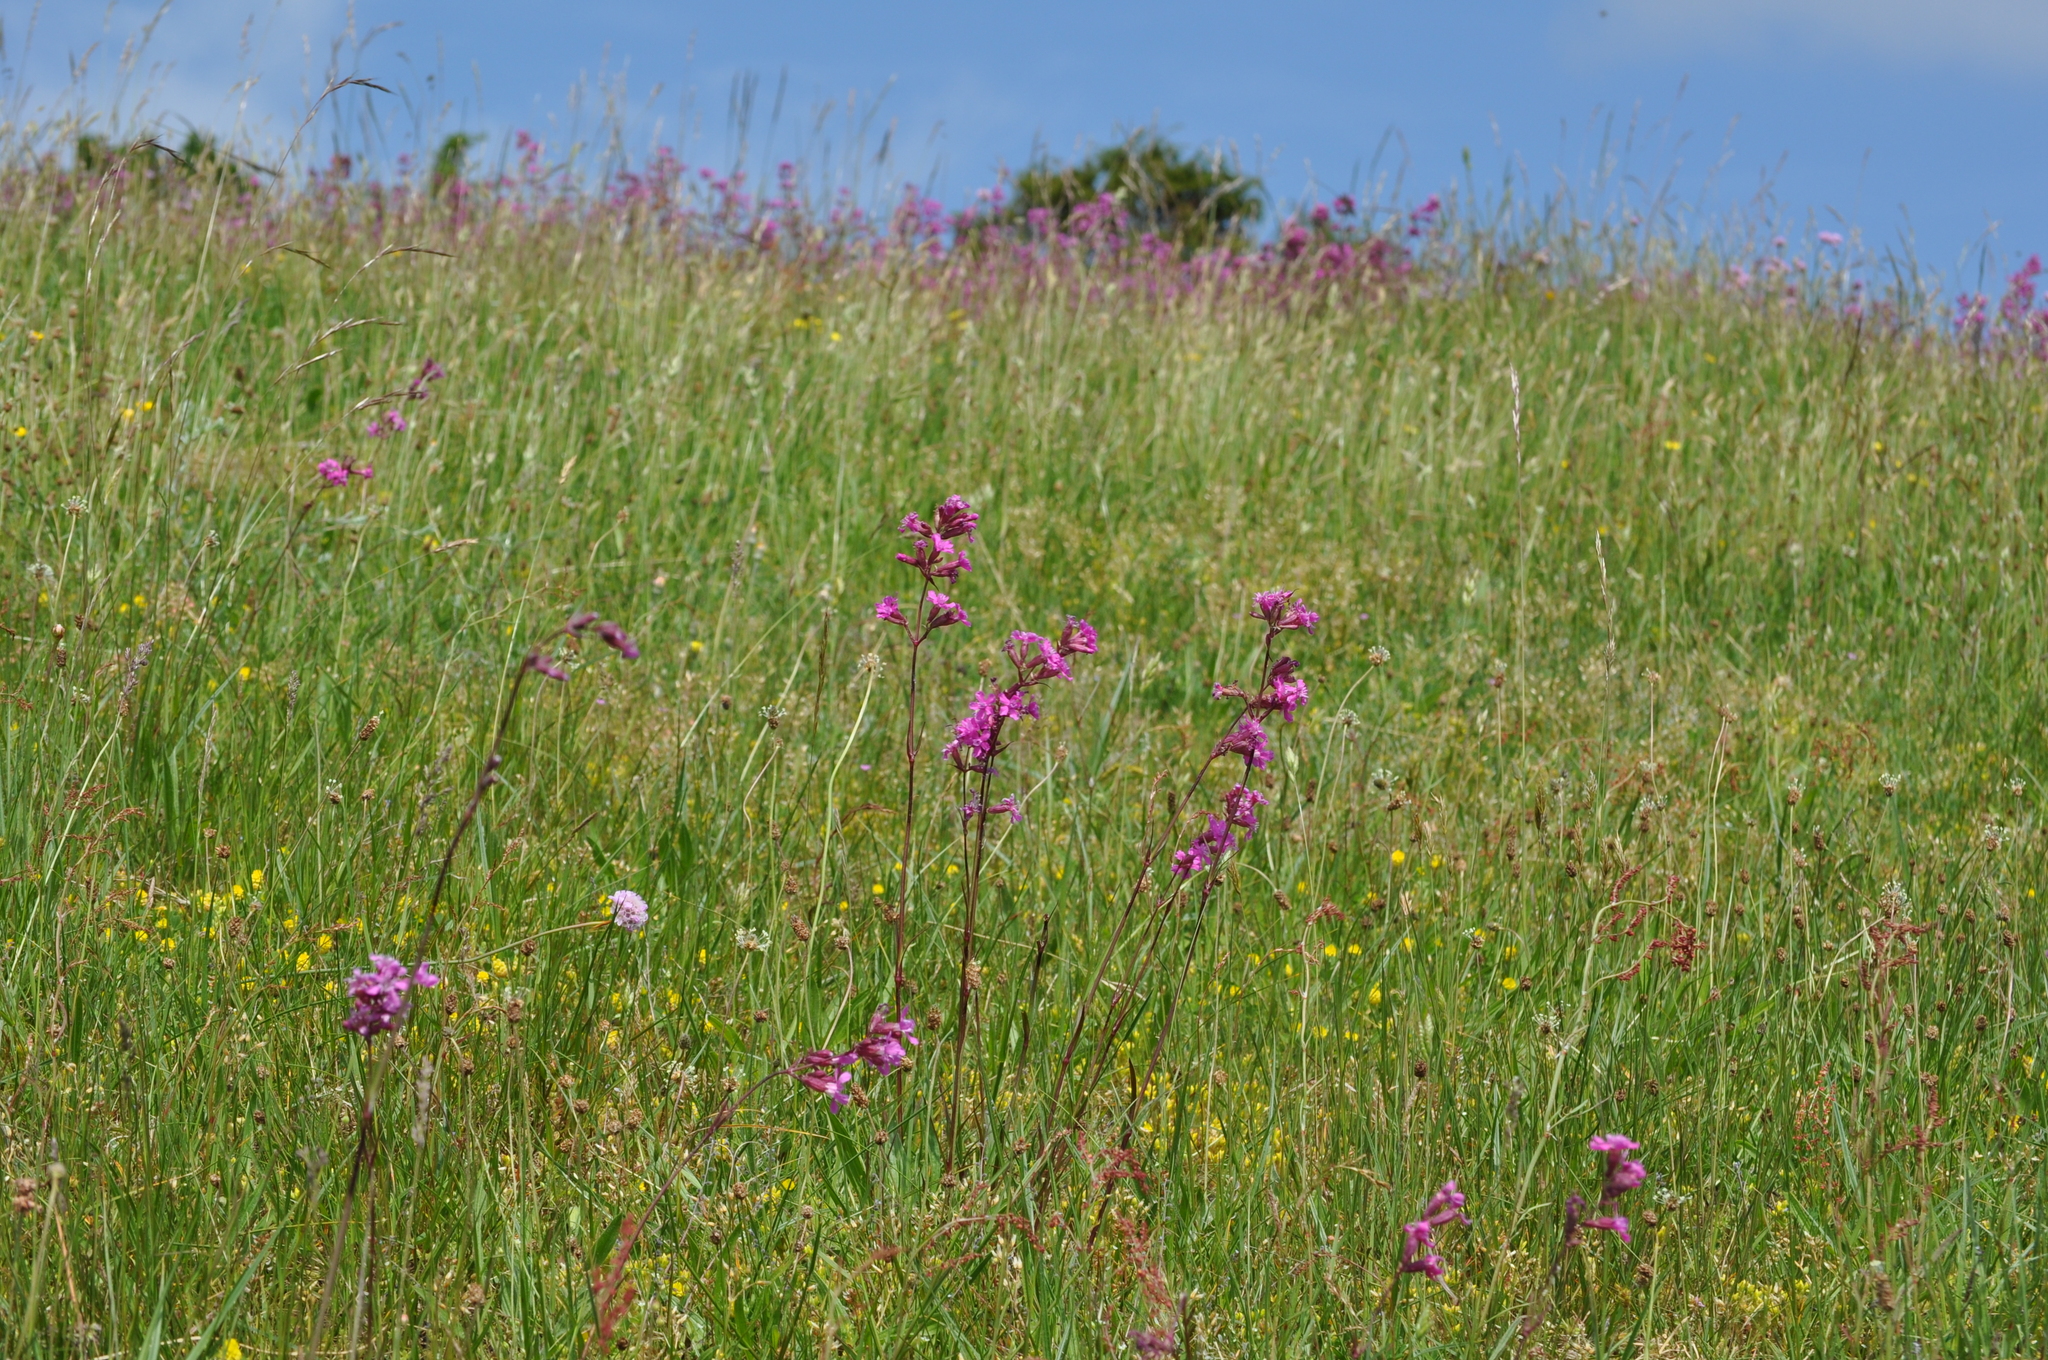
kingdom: Plantae
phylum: Tracheophyta
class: Magnoliopsida
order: Caryophyllales
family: Caryophyllaceae
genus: Viscaria
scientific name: Viscaria vulgaris
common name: Clammy campion
